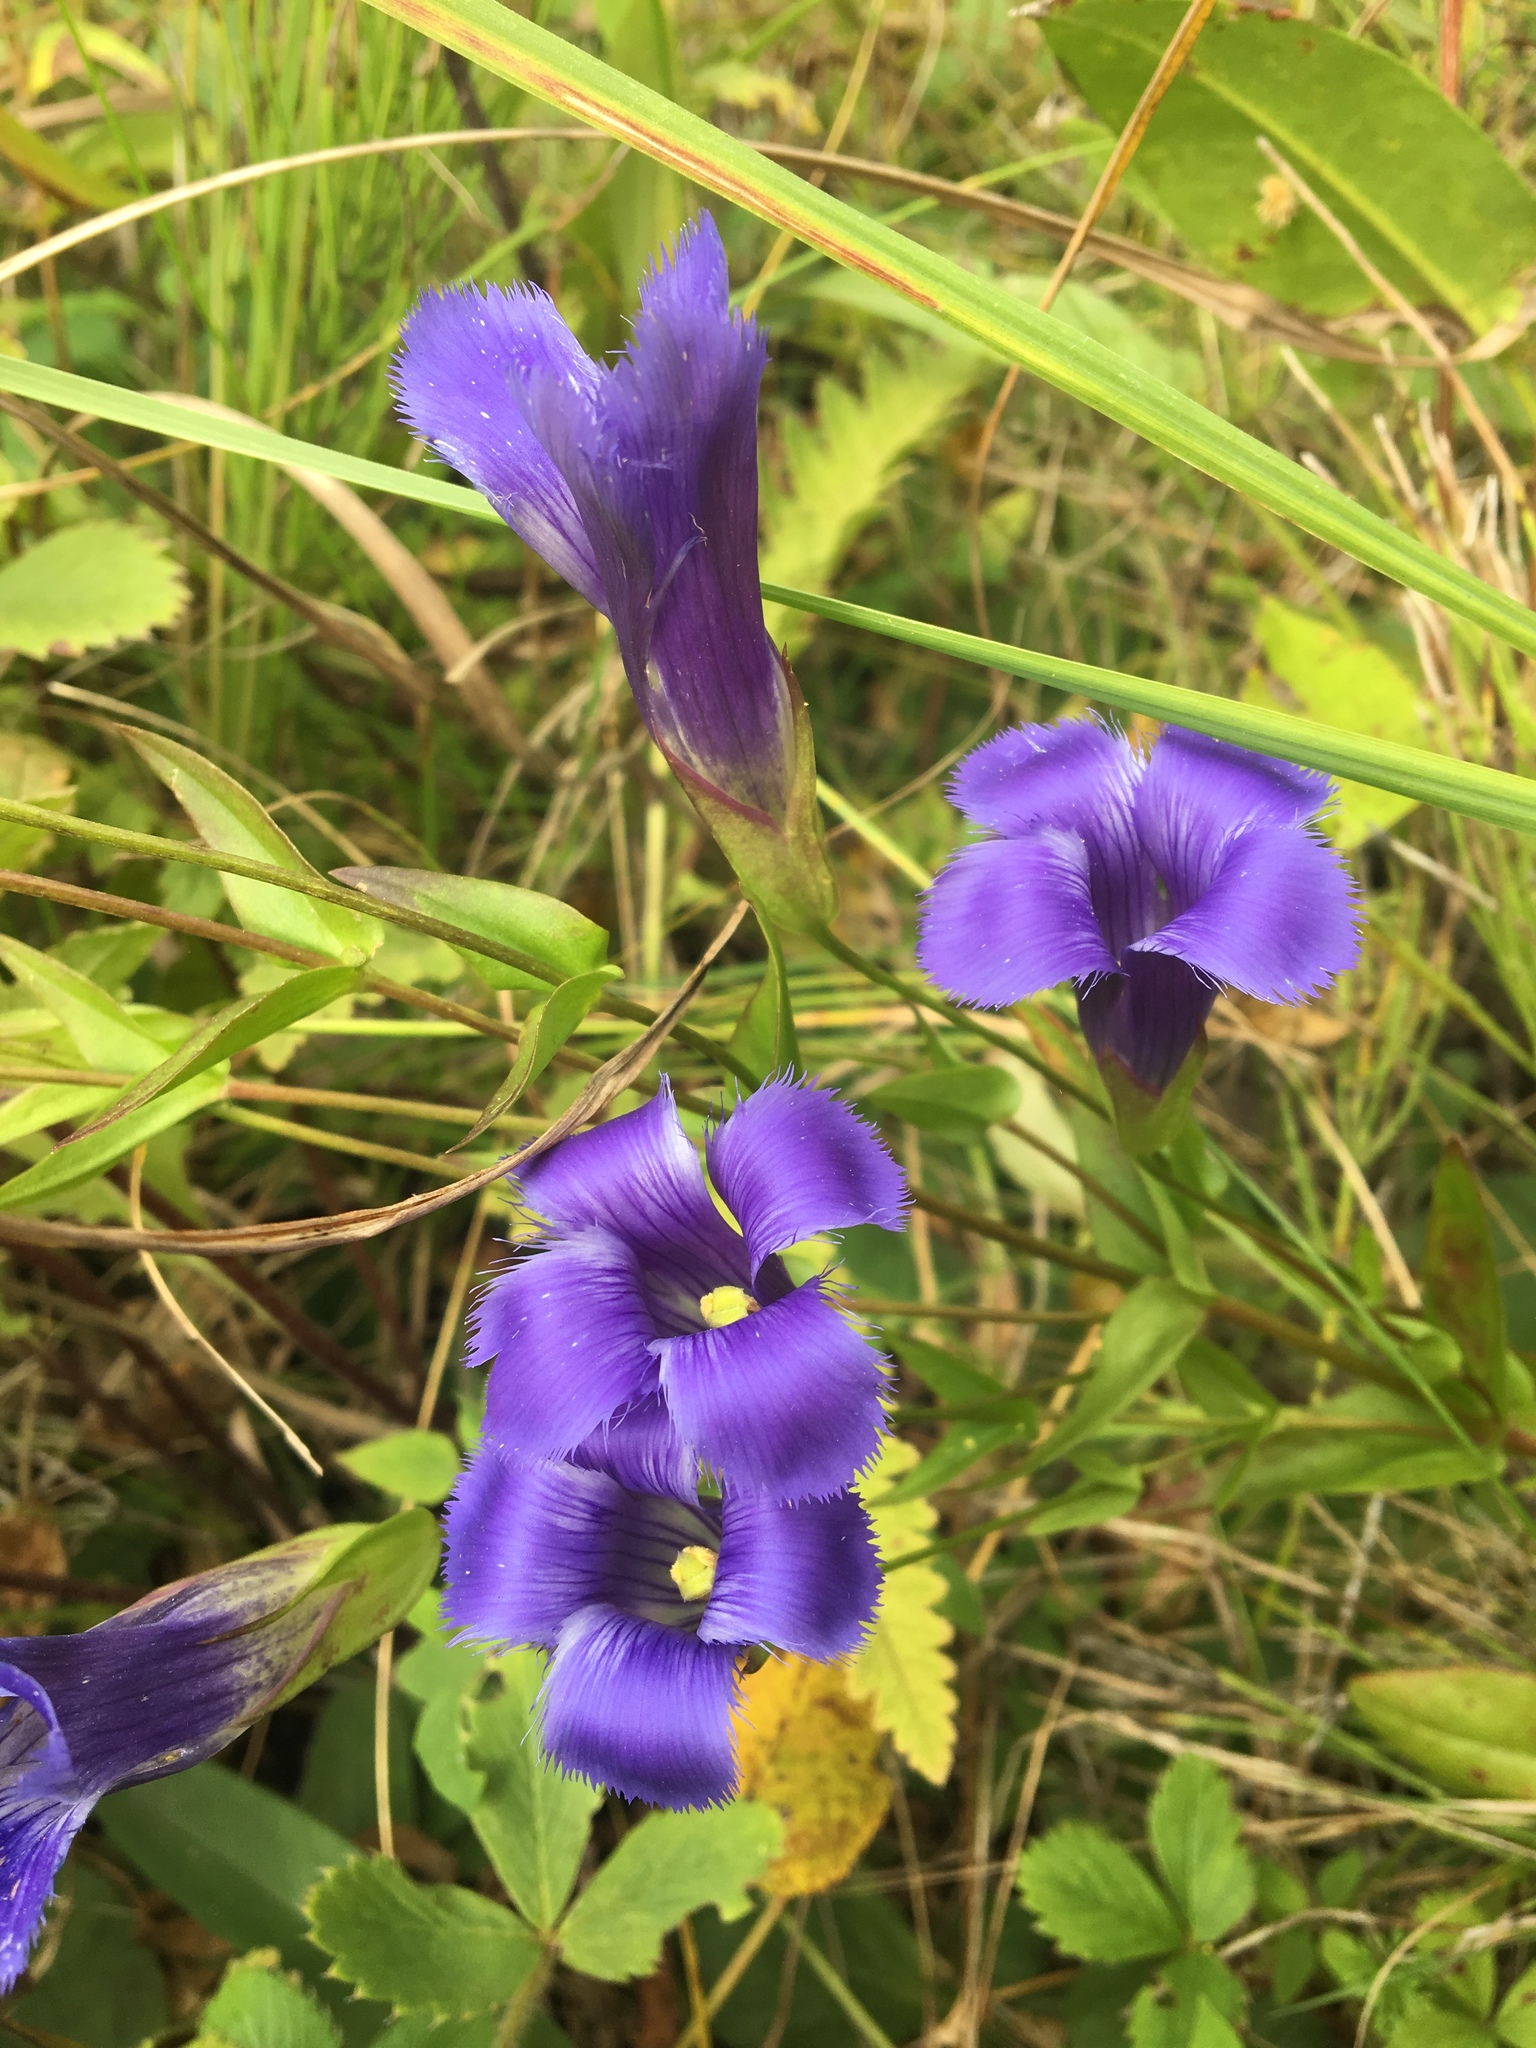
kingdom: Plantae
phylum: Tracheophyta
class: Magnoliopsida
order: Gentianales
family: Gentianaceae
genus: Gentianopsis
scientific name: Gentianopsis crinita
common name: Fringed-gentian
